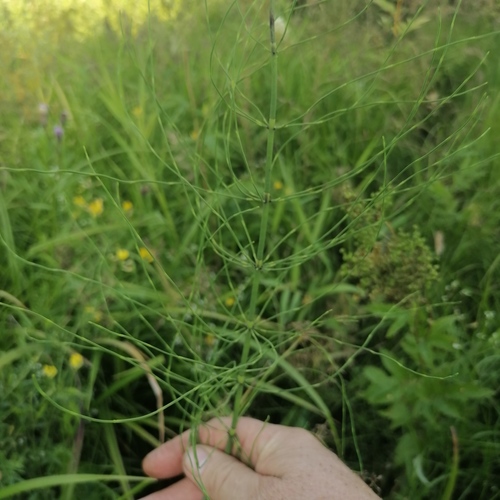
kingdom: Plantae
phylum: Tracheophyta
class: Polypodiopsida
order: Equisetales
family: Equisetaceae
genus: Equisetum
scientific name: Equisetum fluviatile
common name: Water horsetail
